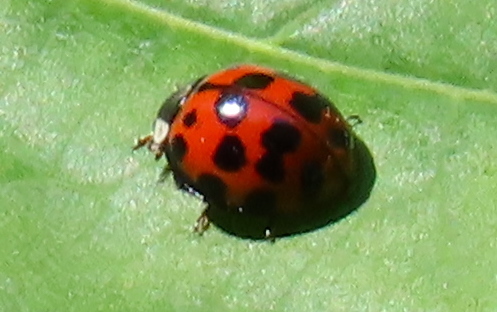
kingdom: Animalia
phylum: Arthropoda
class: Insecta
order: Coleoptera
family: Coccinellidae
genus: Harmonia
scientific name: Harmonia axyridis
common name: Harlequin ladybird
